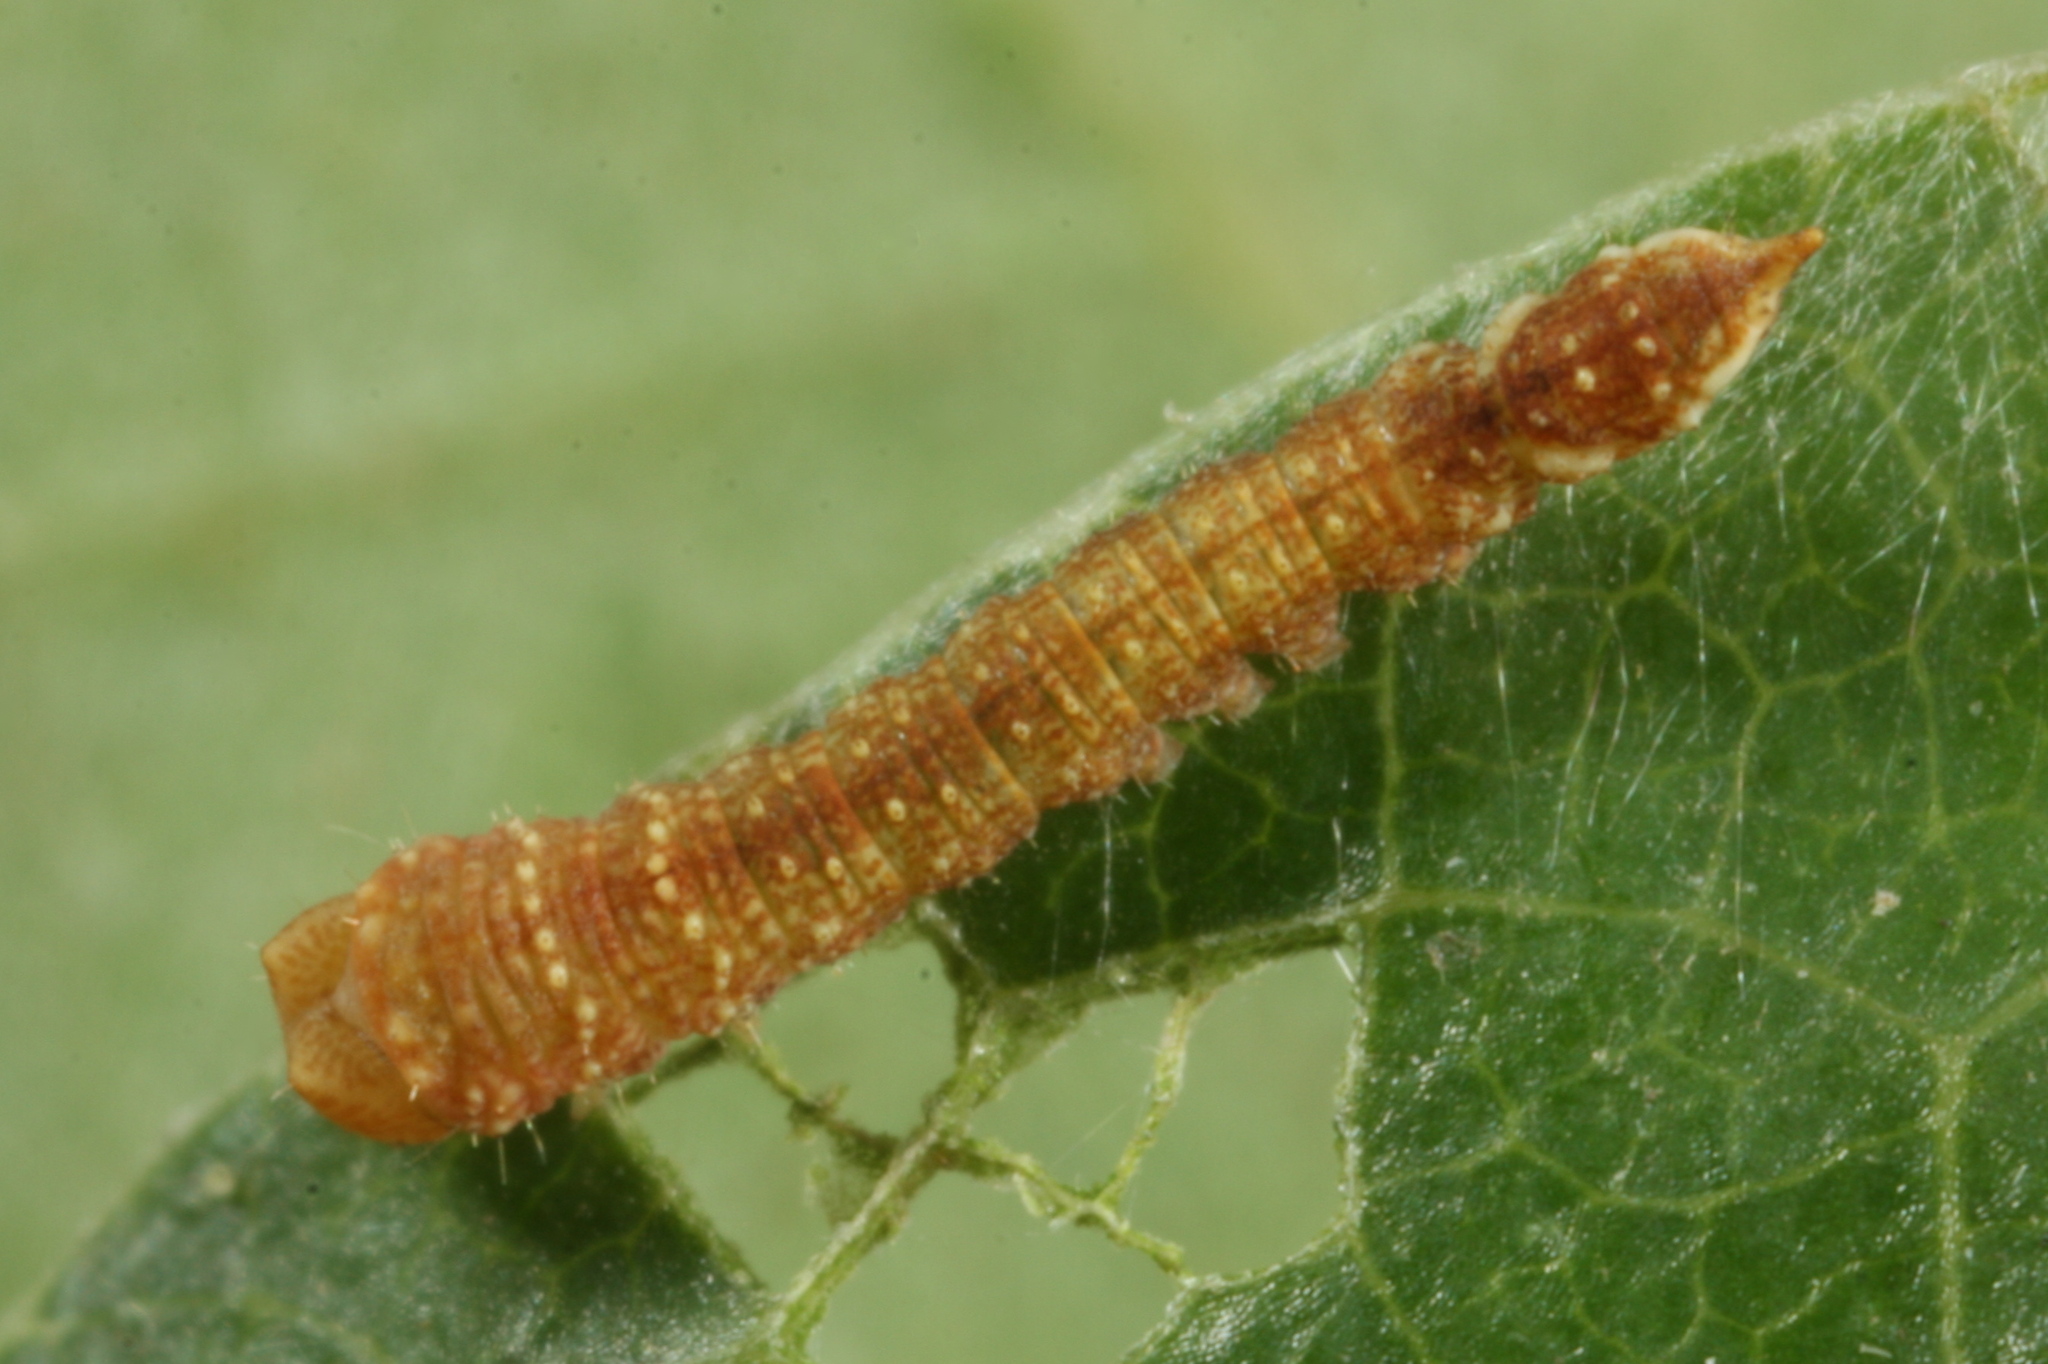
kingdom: Animalia
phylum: Arthropoda
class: Insecta
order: Lepidoptera
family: Drepanidae
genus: Watsonalla
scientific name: Watsonalla binaria
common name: Oak hook-tip
